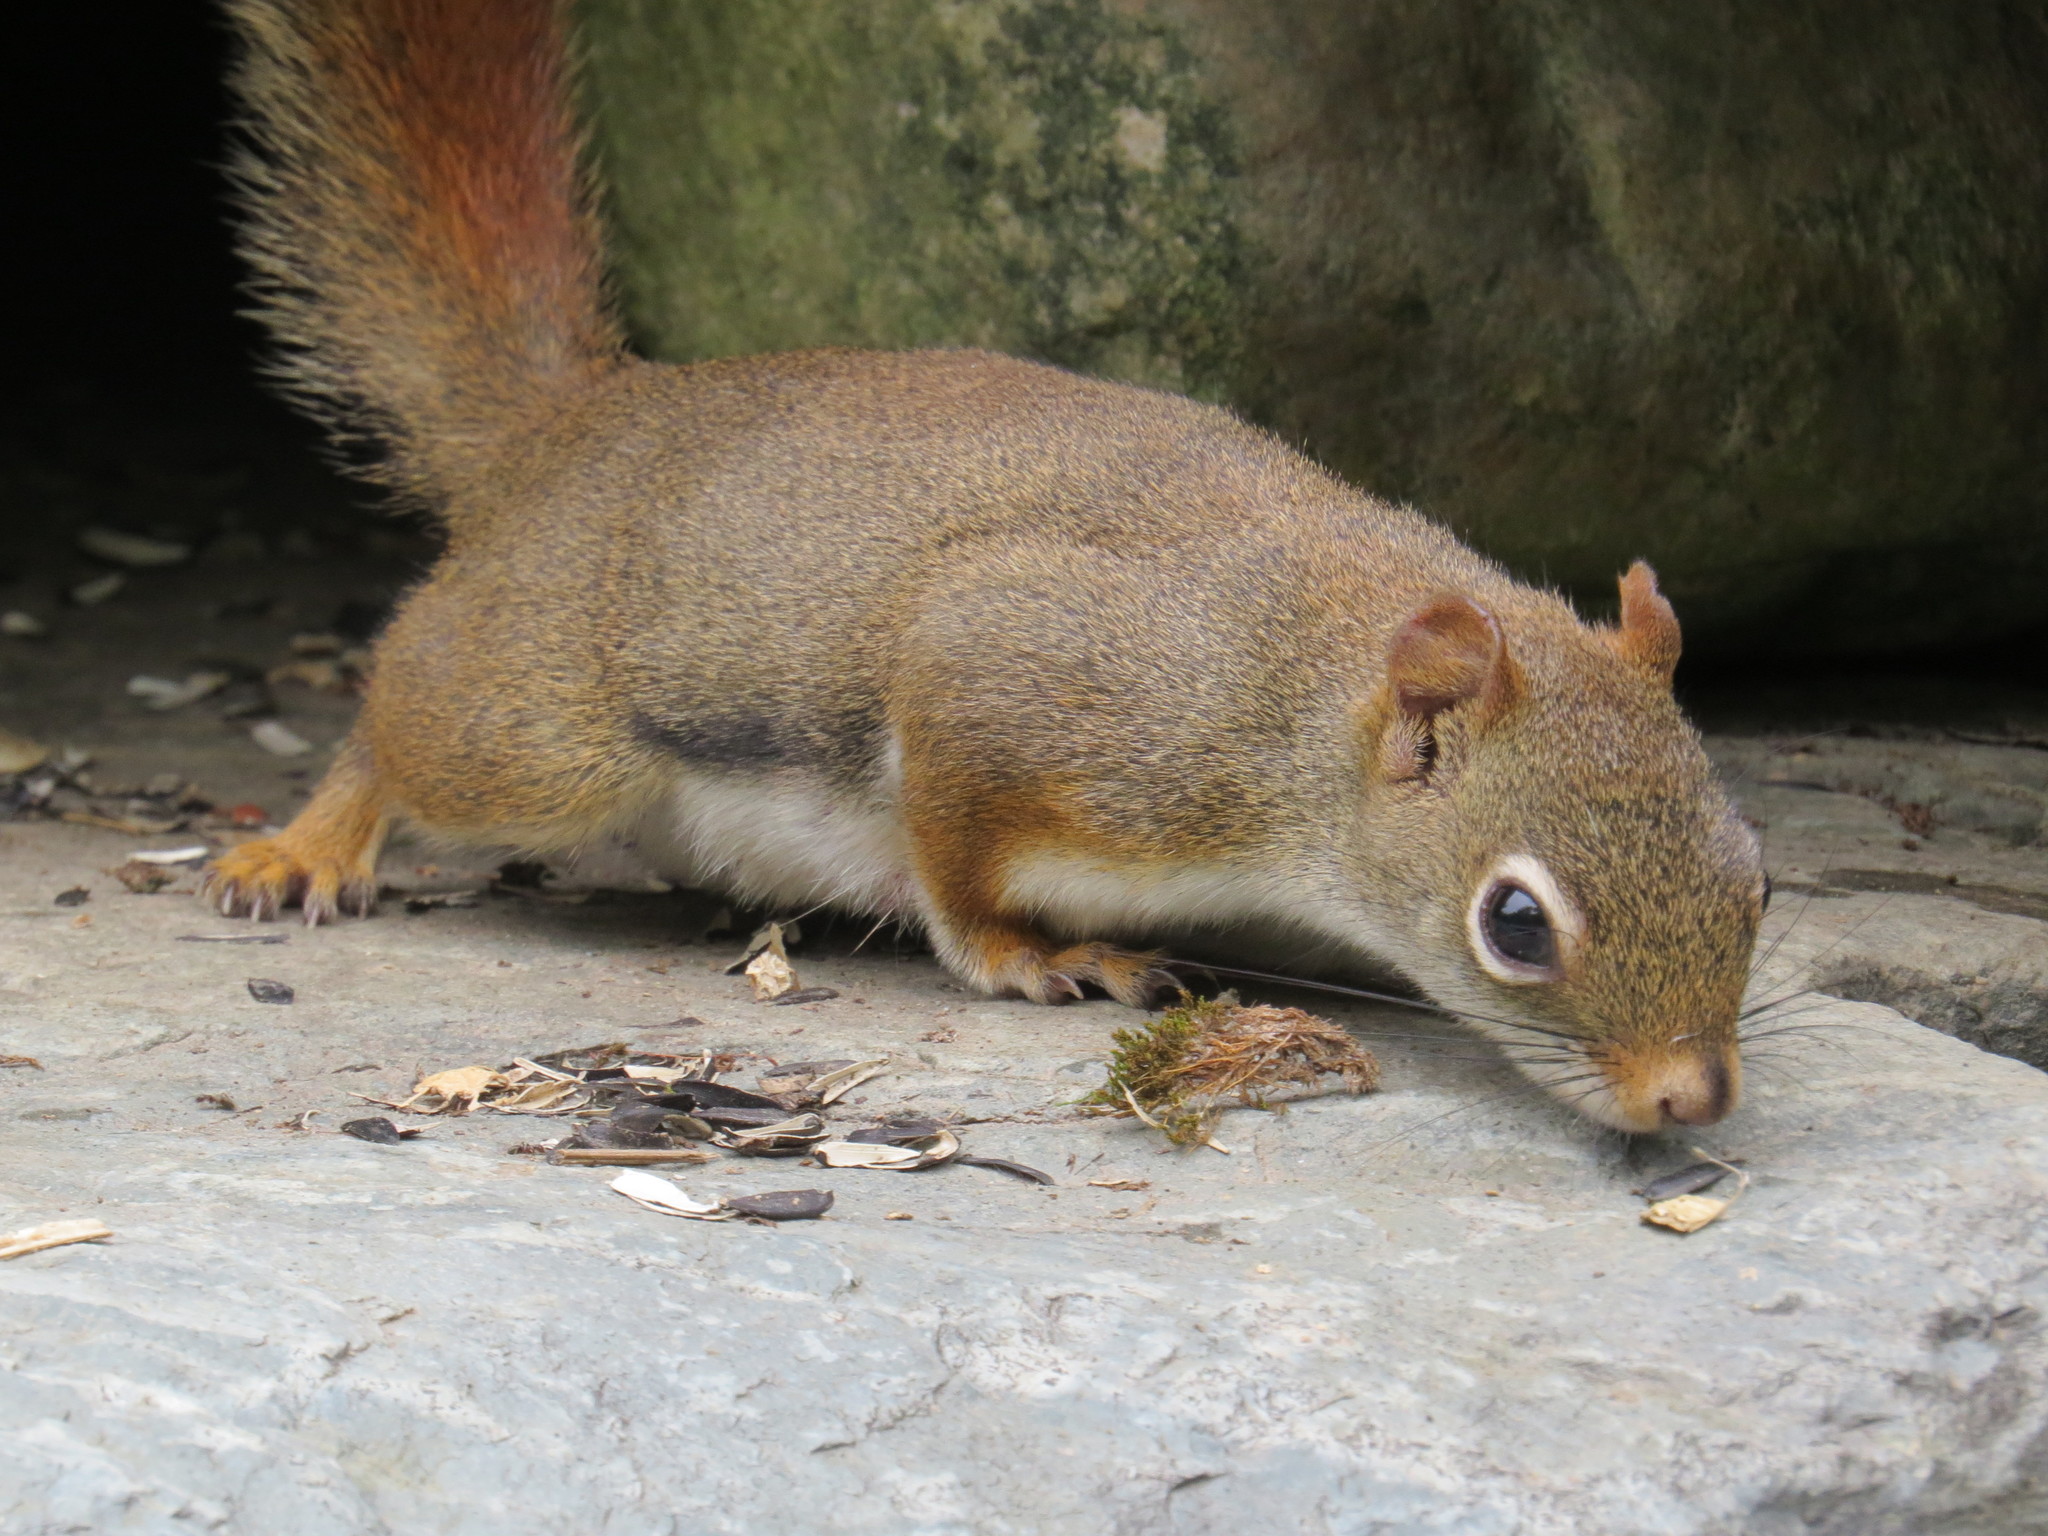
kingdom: Animalia
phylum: Chordata
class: Mammalia
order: Rodentia
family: Sciuridae
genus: Tamiasciurus
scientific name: Tamiasciurus hudsonicus
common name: Red squirrel
